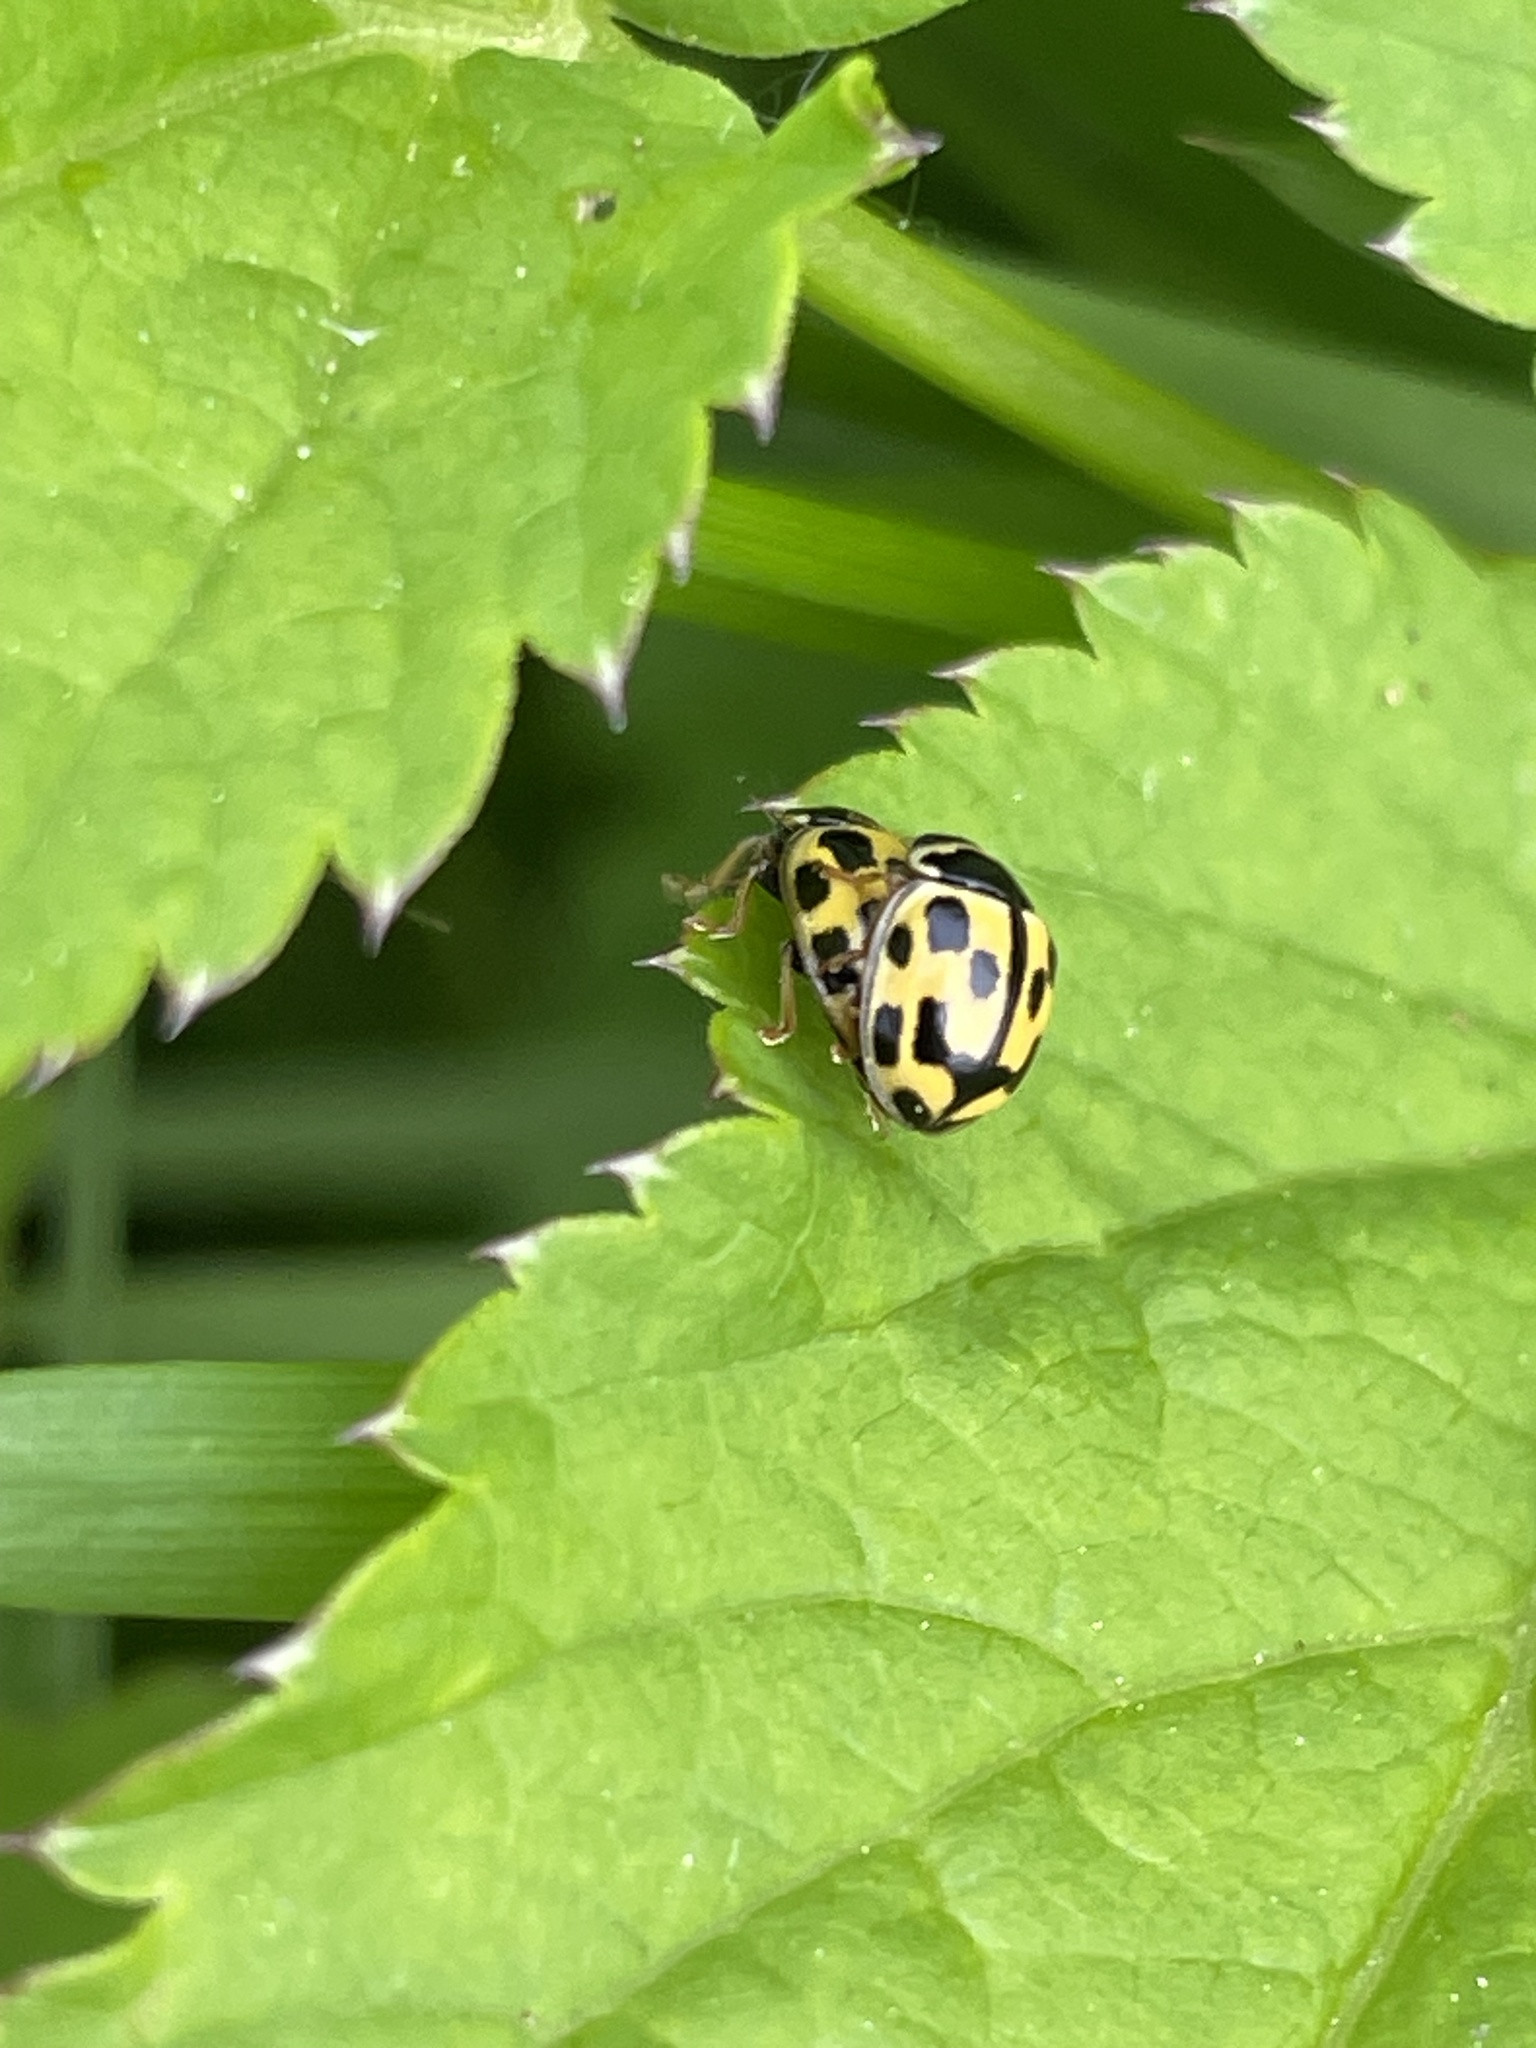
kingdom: Animalia
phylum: Arthropoda
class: Insecta
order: Coleoptera
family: Coccinellidae
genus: Propylaea
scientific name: Propylaea quatuordecimpunctata
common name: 14-spotted ladybird beetle
